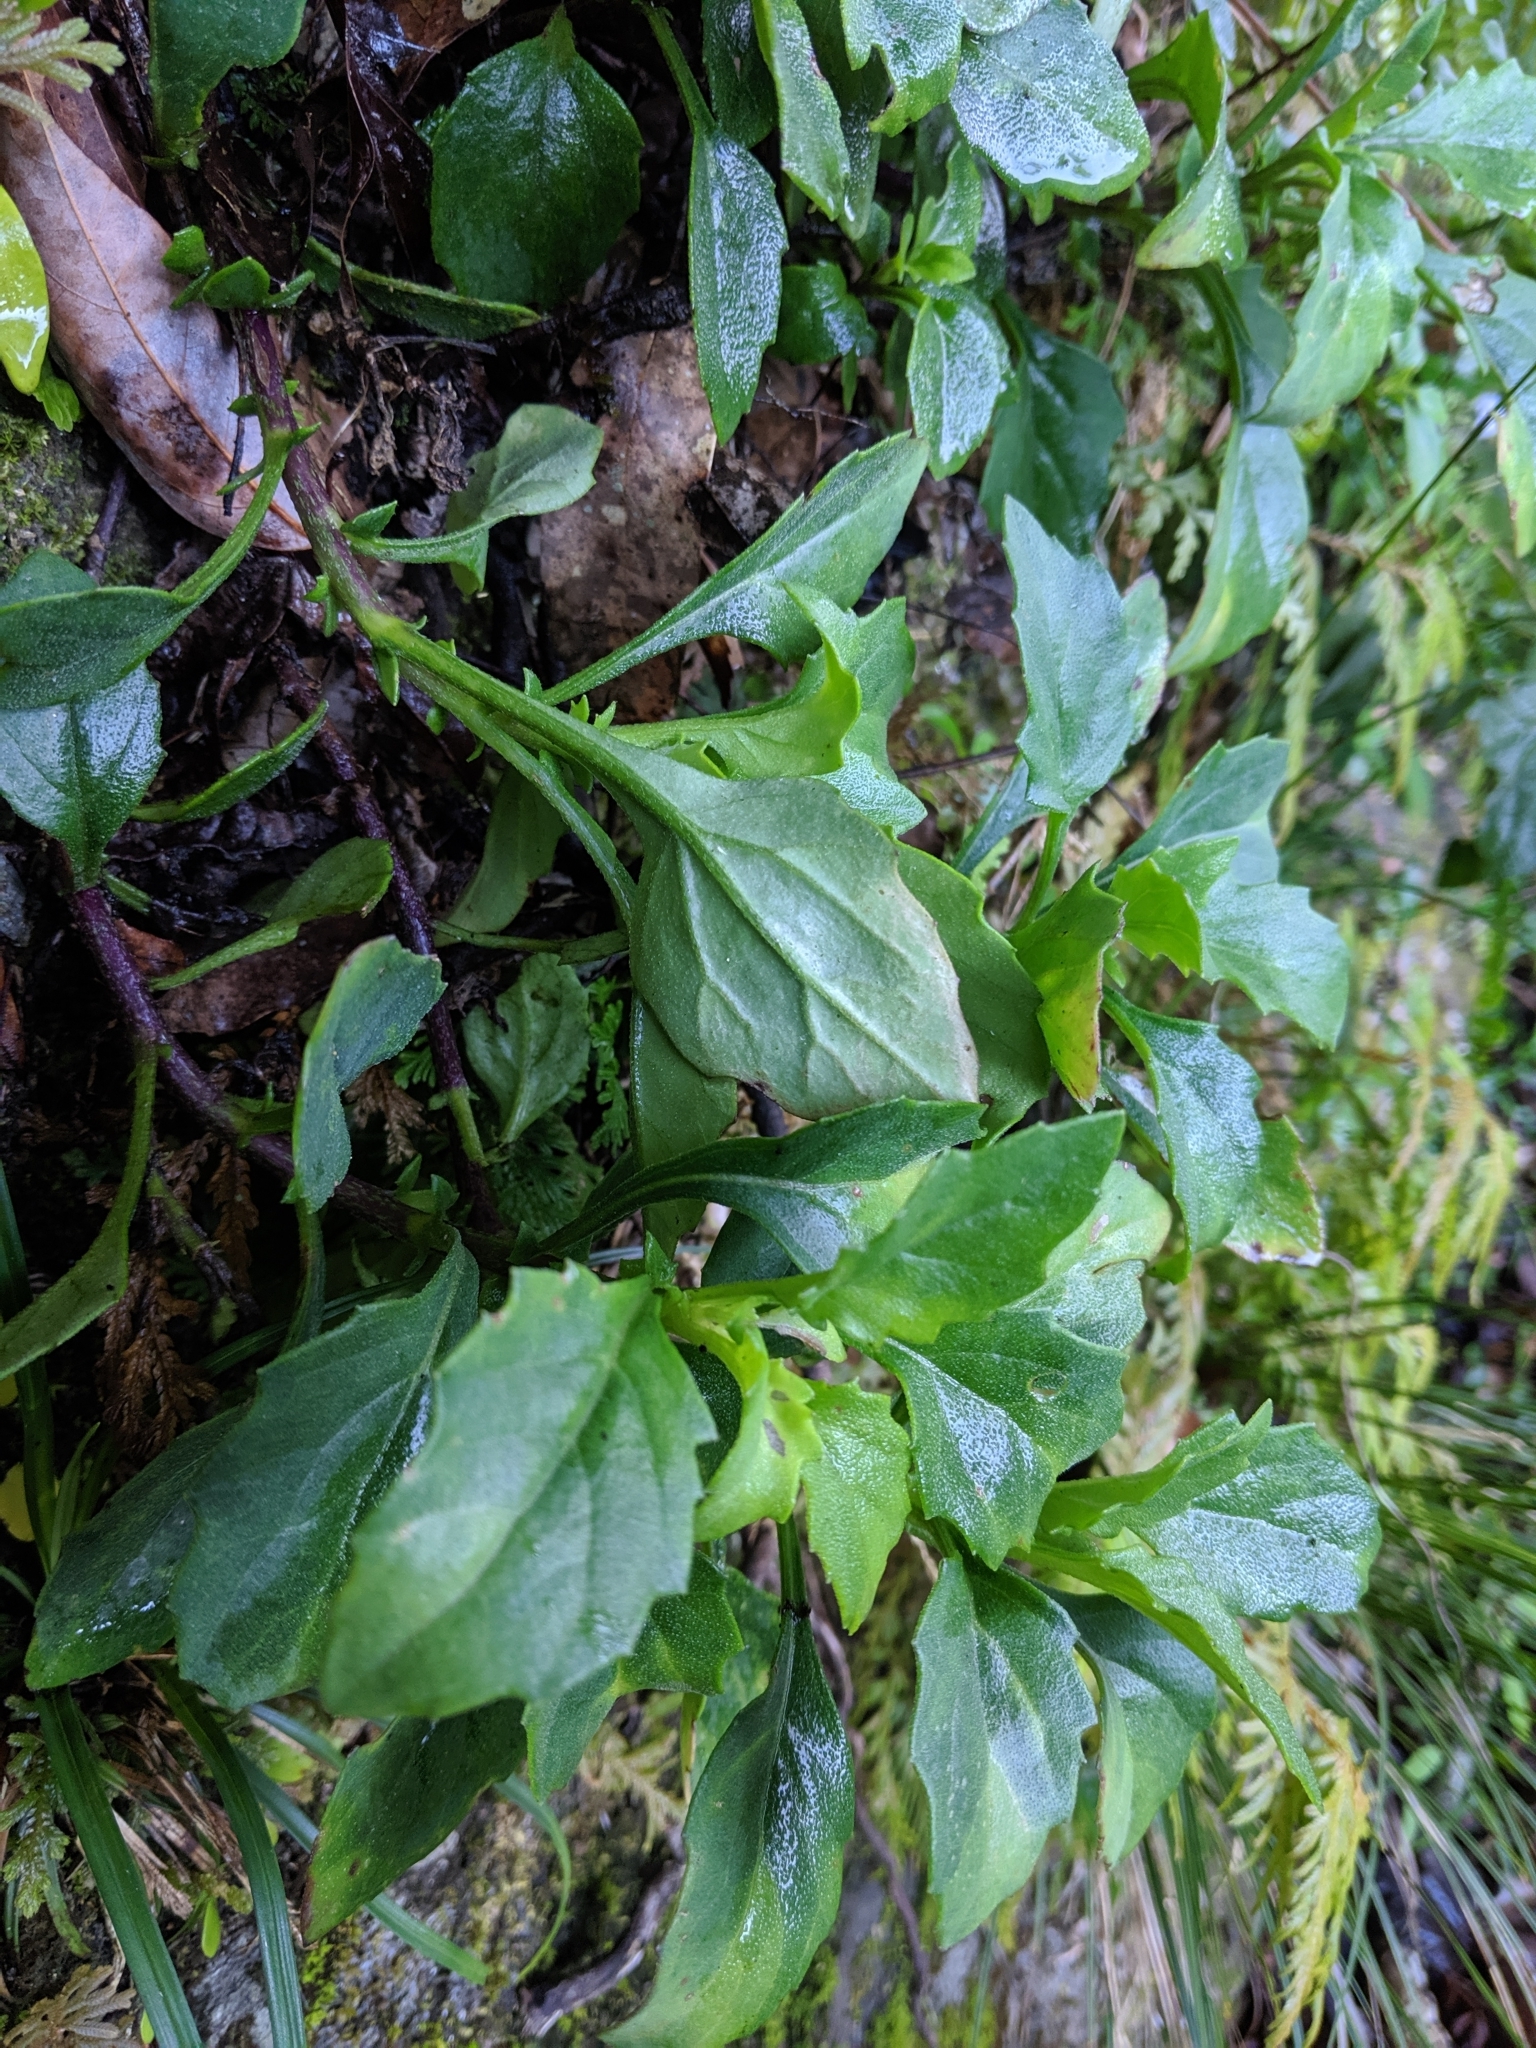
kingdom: Plantae
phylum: Tracheophyta
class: Magnoliopsida
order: Asterales
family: Asteraceae
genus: Gynura
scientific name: Gynura formosana
